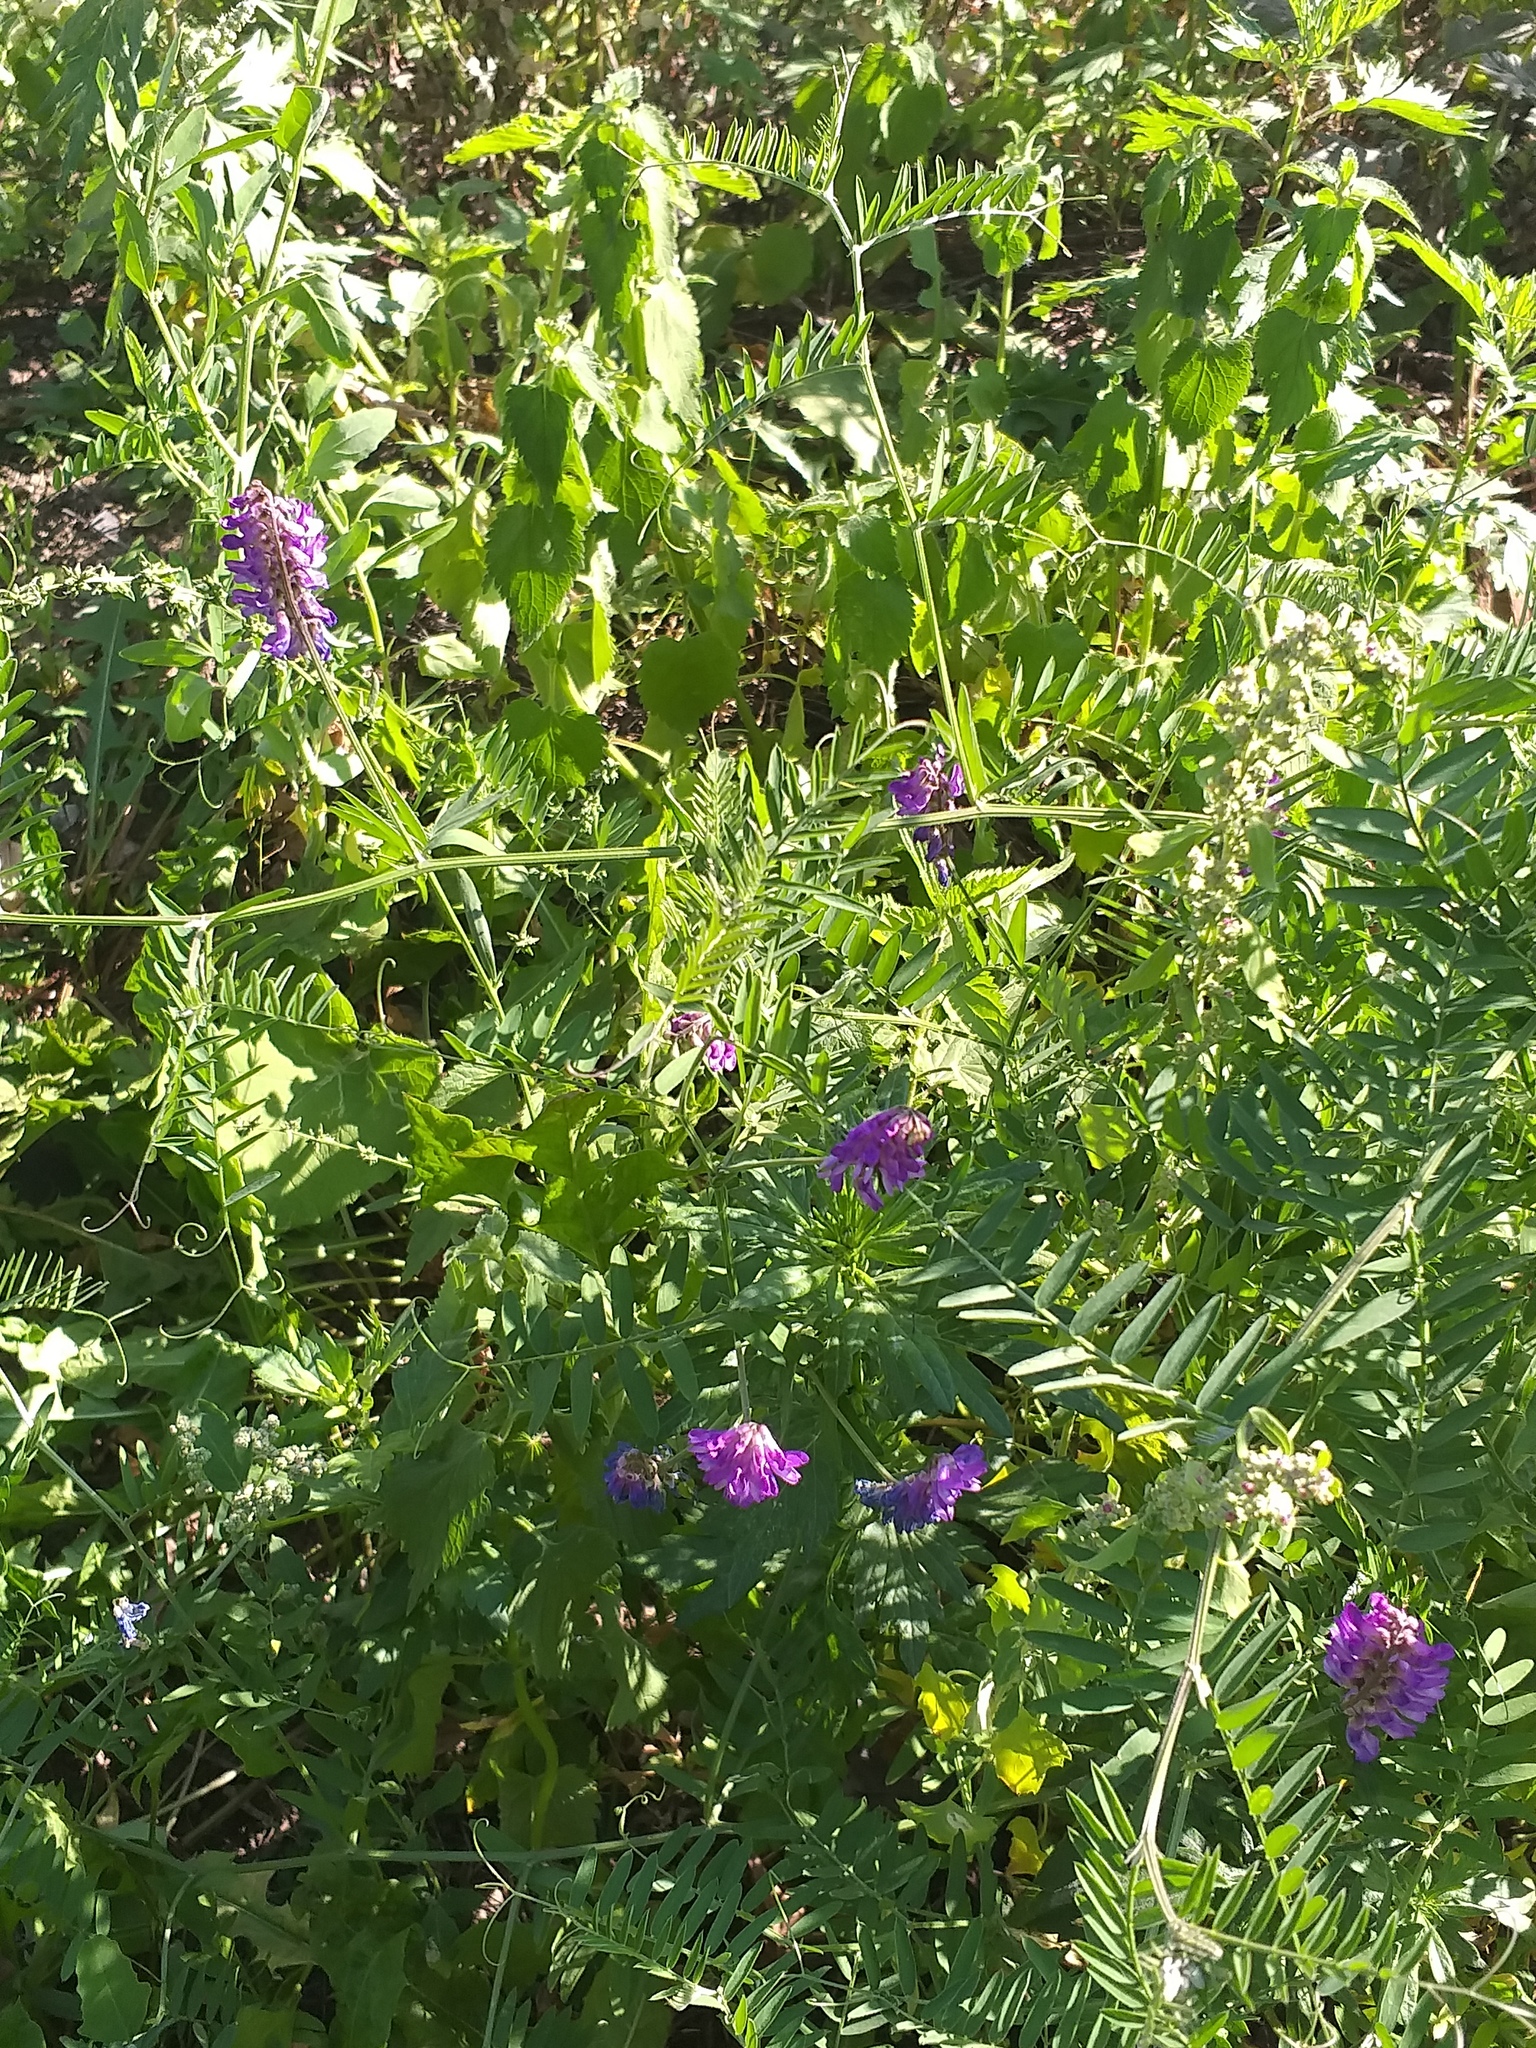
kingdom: Plantae
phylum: Tracheophyta
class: Magnoliopsida
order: Fabales
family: Fabaceae
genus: Vicia
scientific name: Vicia cracca
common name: Bird vetch
